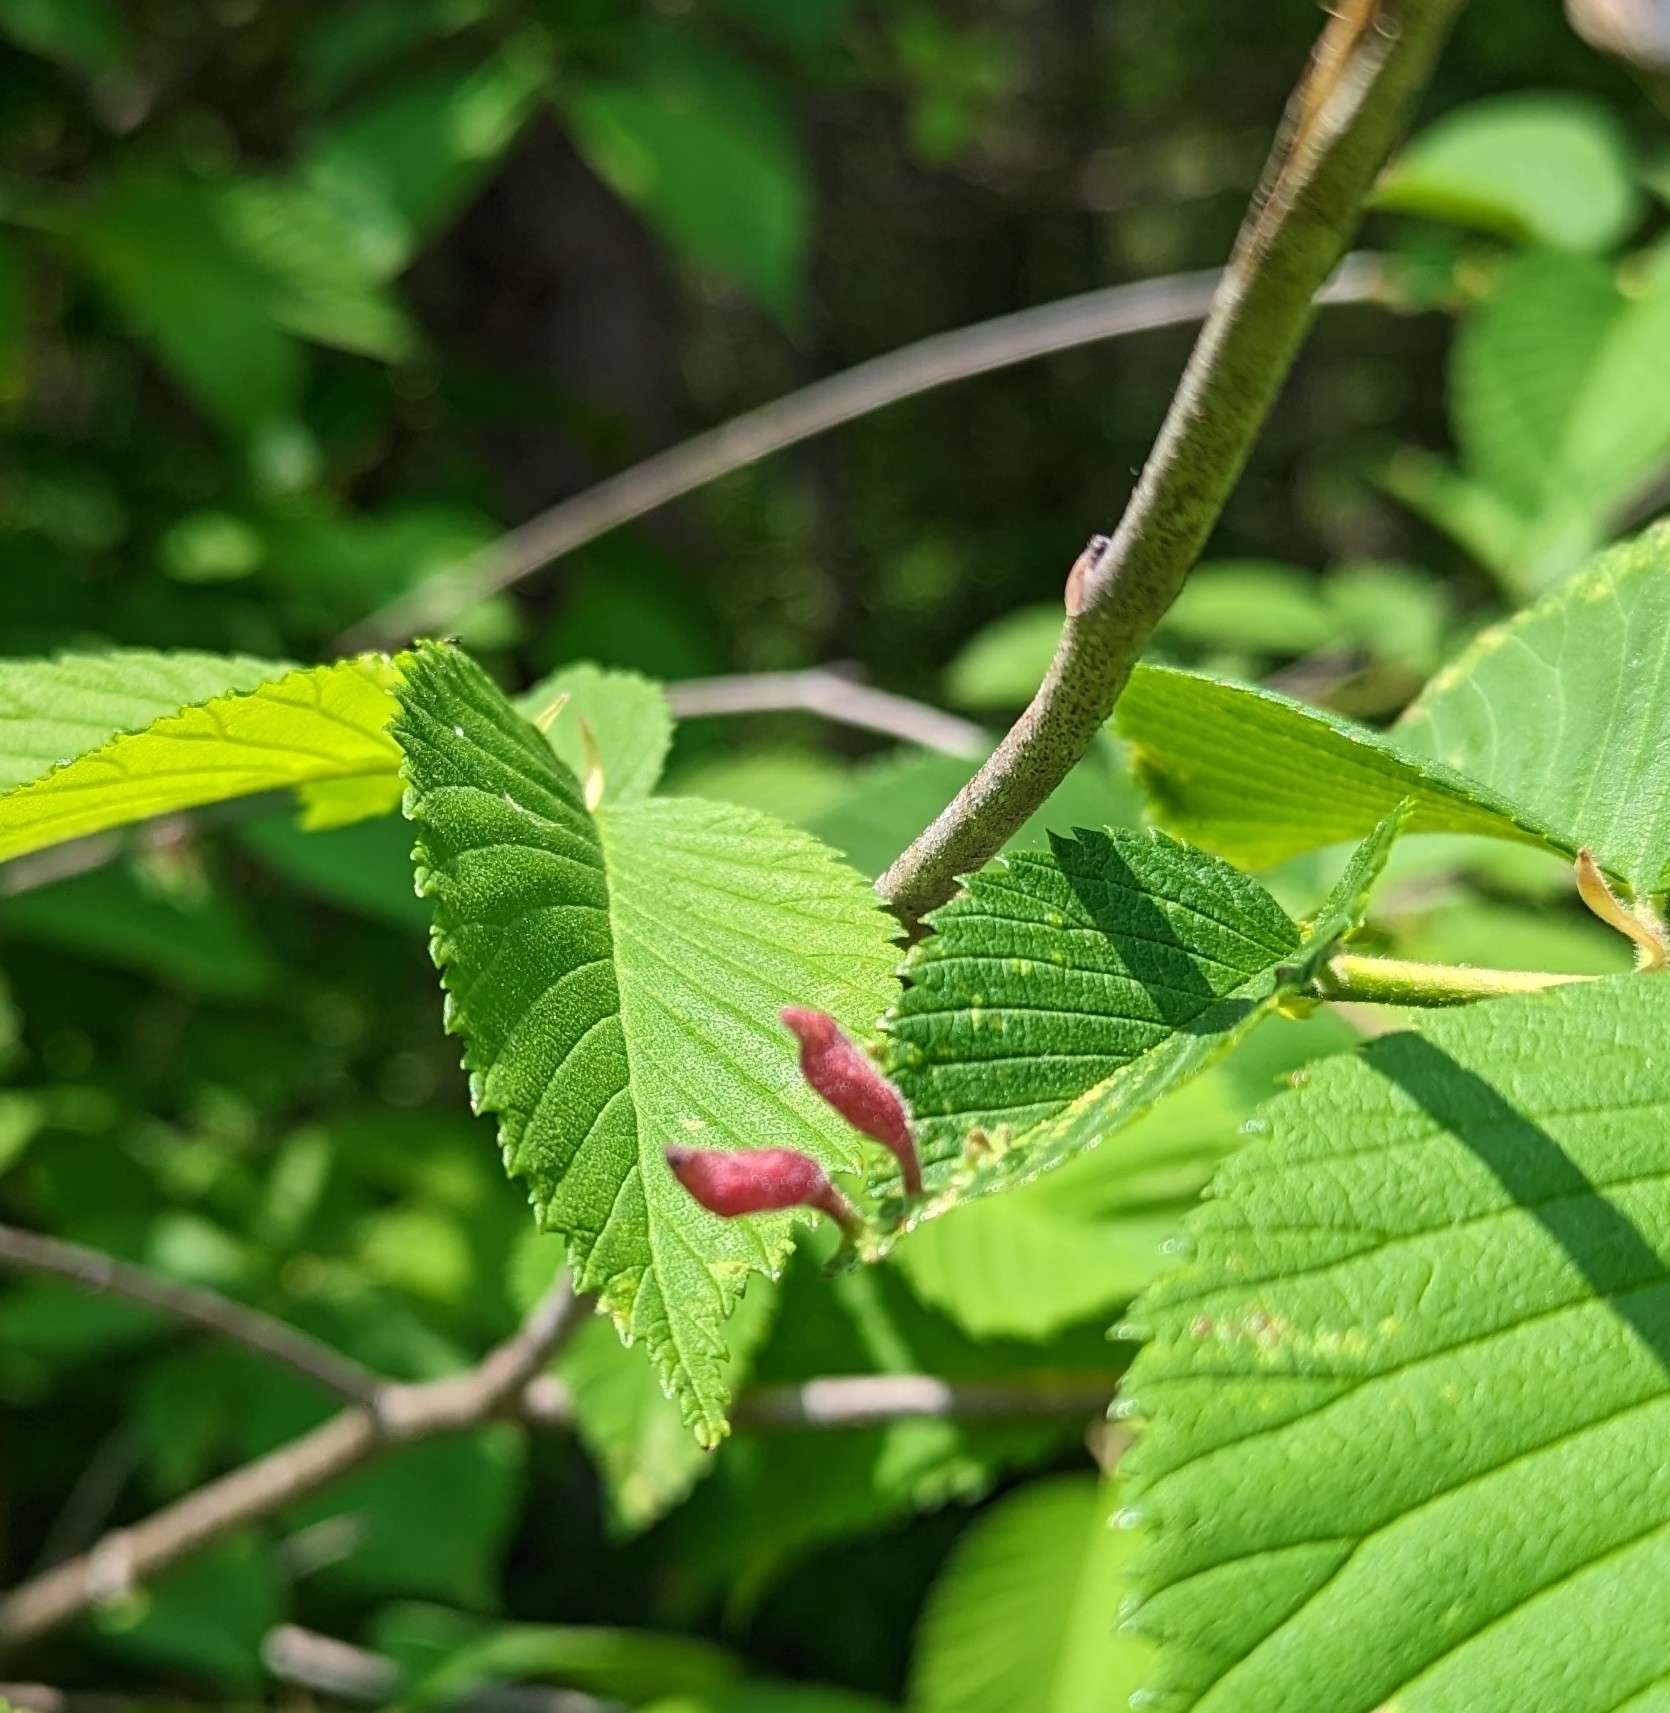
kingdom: Animalia
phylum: Arthropoda
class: Insecta
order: Hemiptera
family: Aphididae
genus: Tetraneura
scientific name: Tetraneura nigriabdominalis
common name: Aphid
